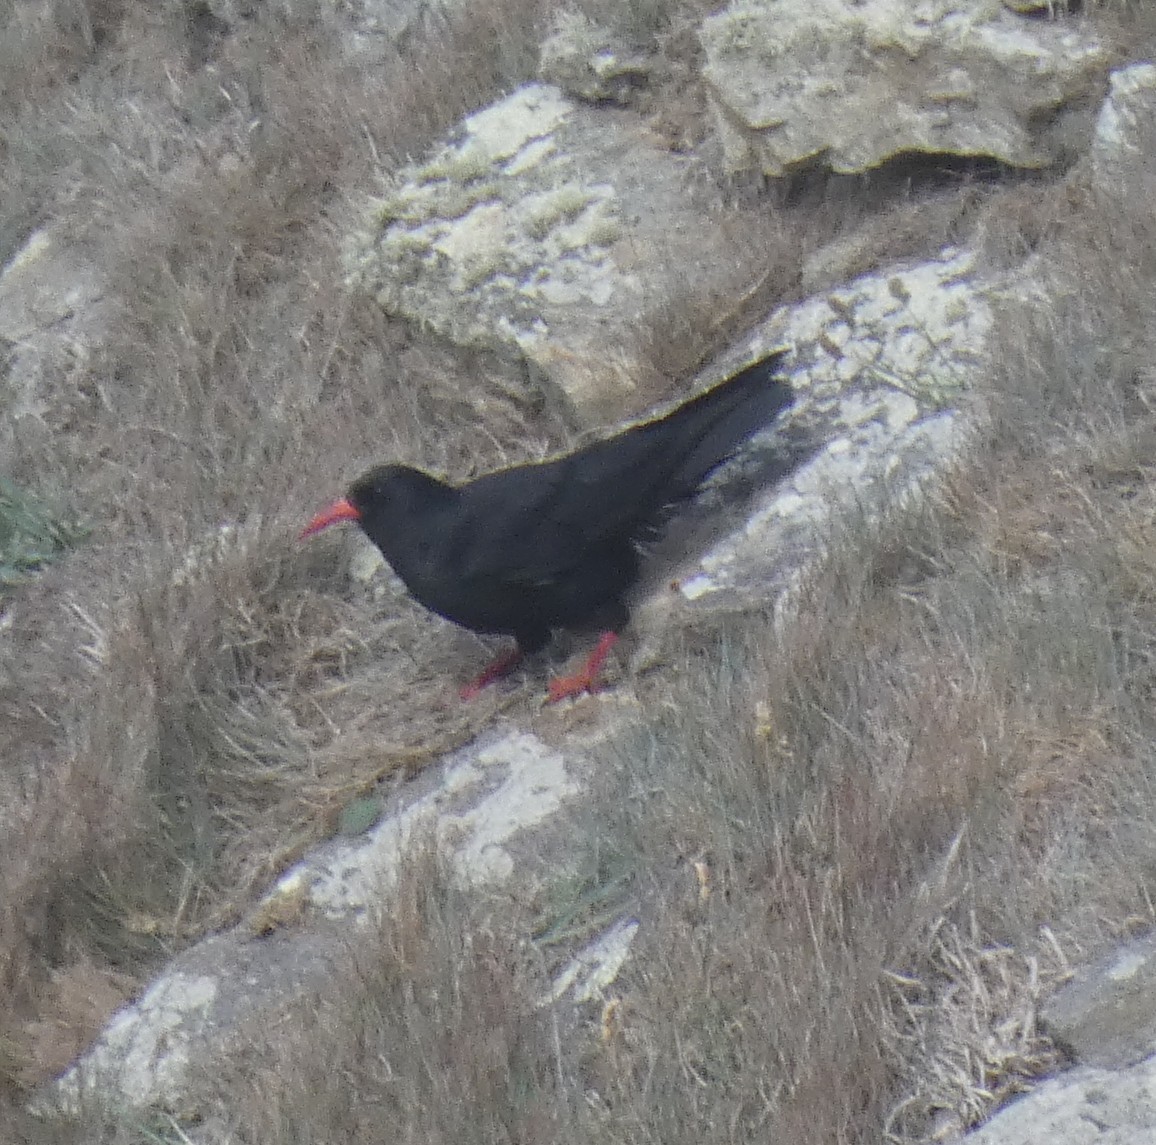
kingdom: Animalia
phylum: Chordata
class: Aves
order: Passeriformes
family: Corvidae
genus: Pyrrhocorax
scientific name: Pyrrhocorax pyrrhocorax
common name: Red-billed chough
